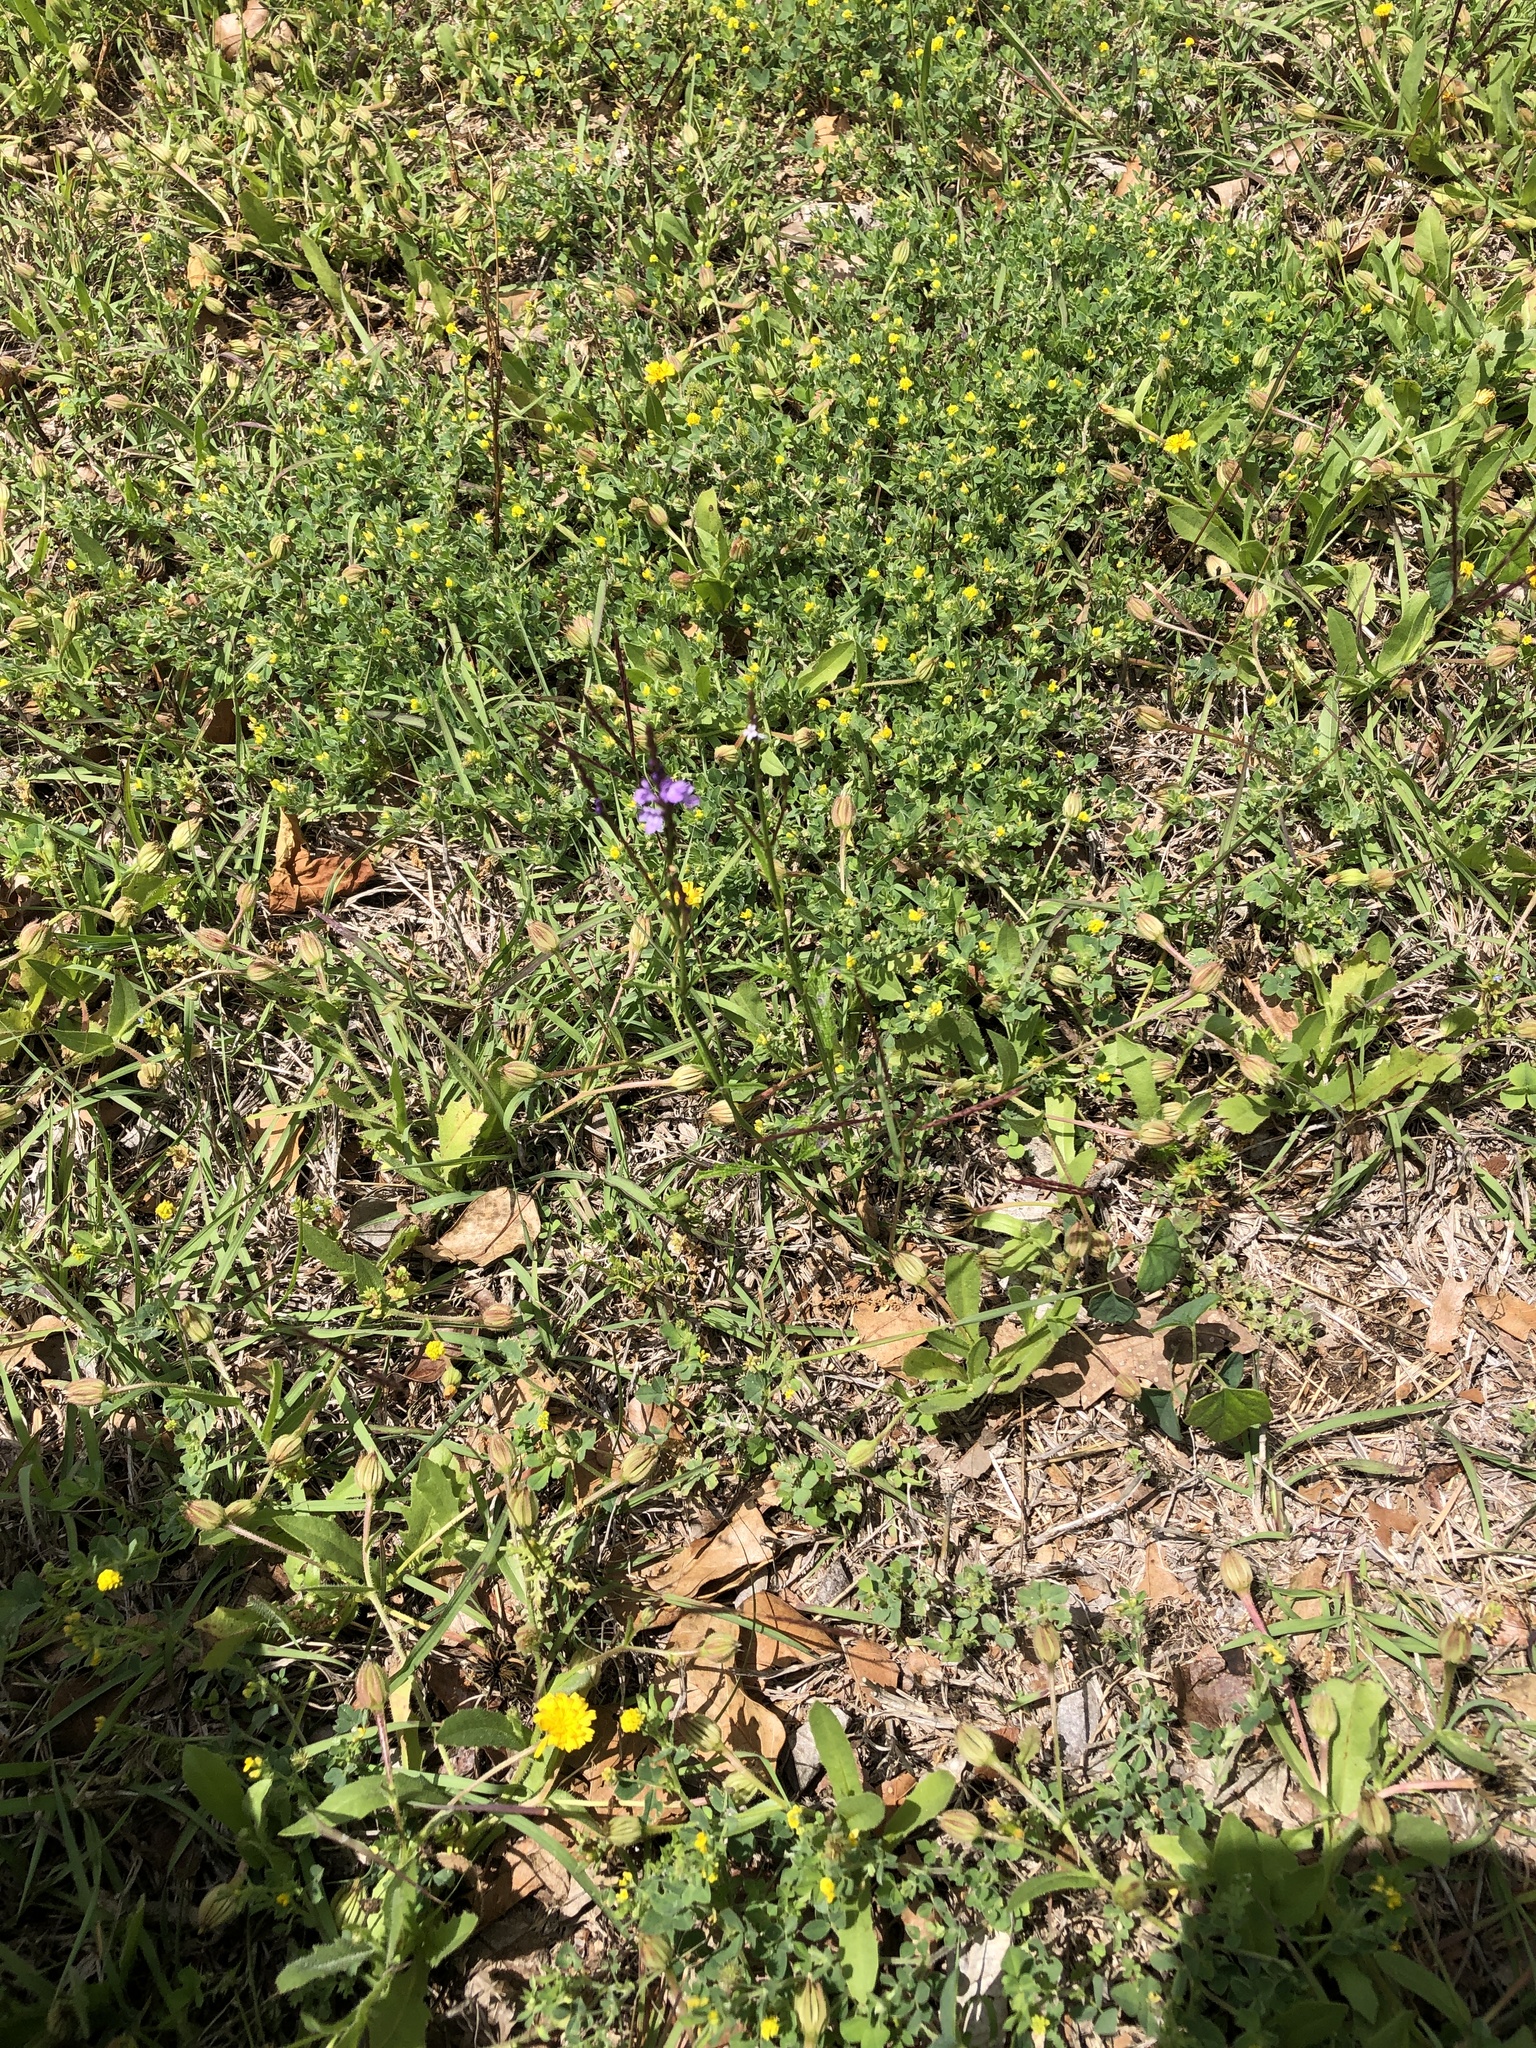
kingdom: Plantae
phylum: Tracheophyta
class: Magnoliopsida
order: Lamiales
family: Verbenaceae
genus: Verbena
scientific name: Verbena halei
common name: Texas vervain
